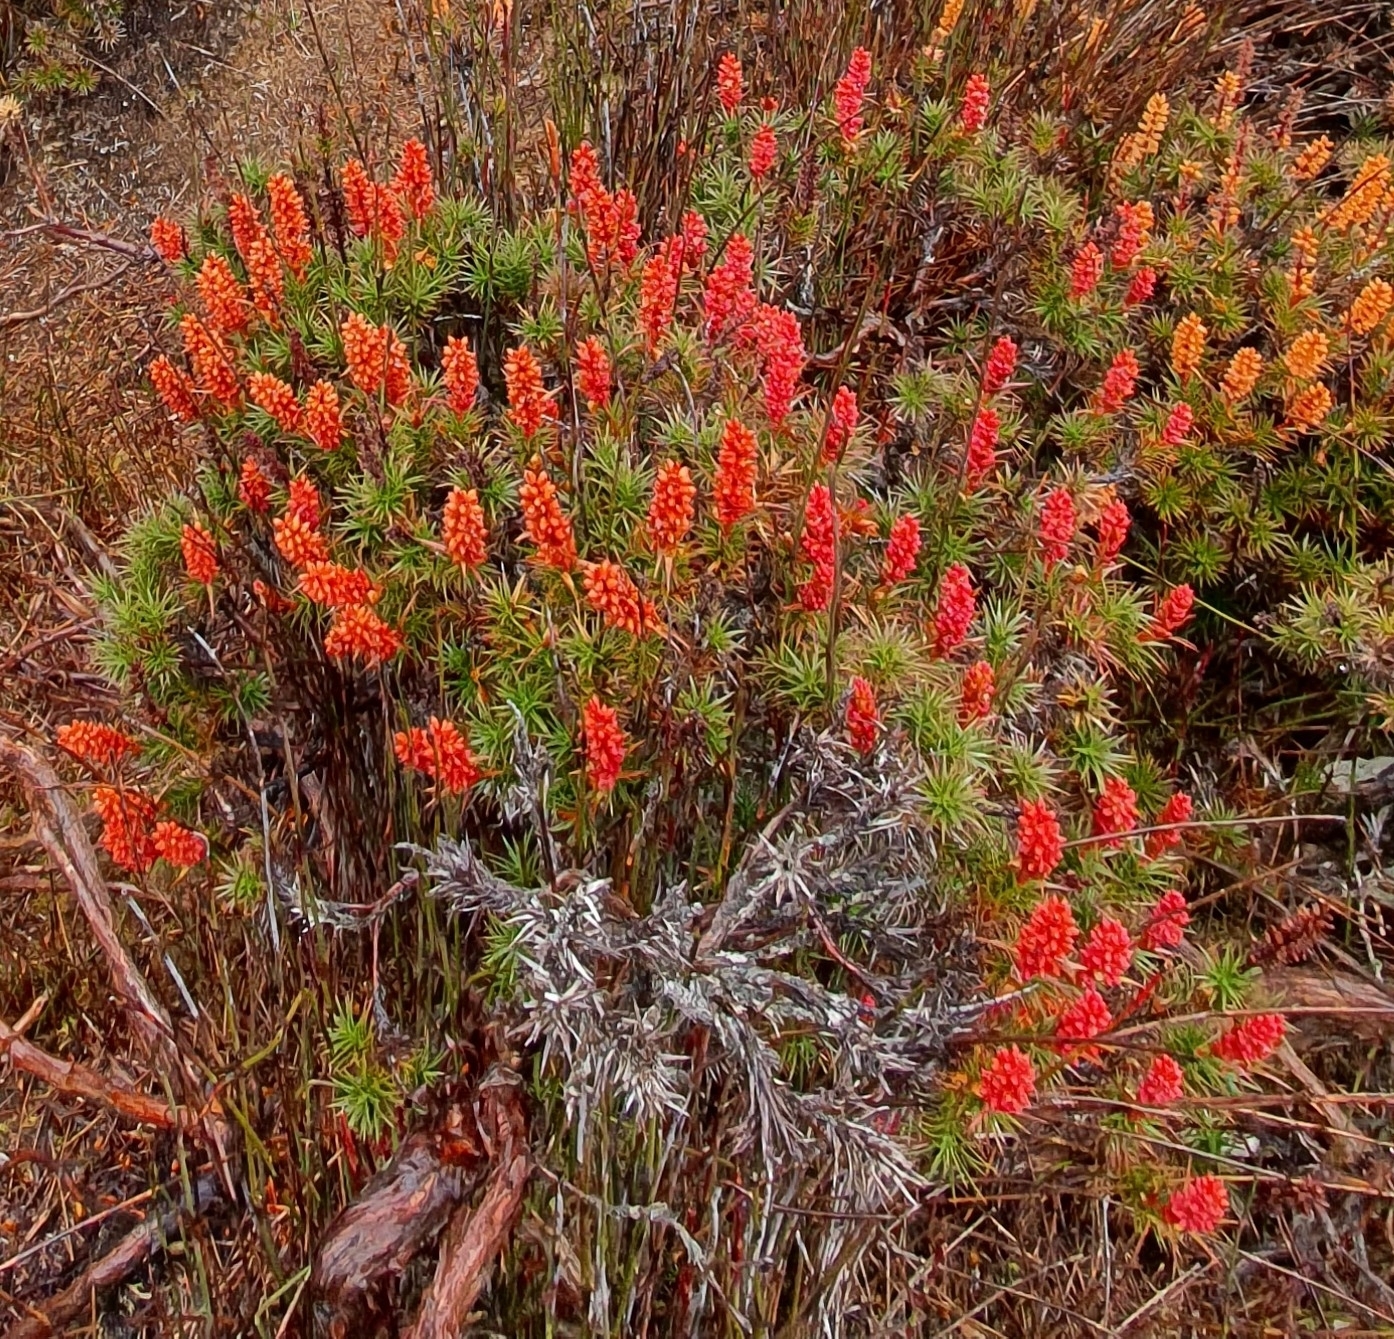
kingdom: Plantae
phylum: Tracheophyta
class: Magnoliopsida
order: Ericales
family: Ericaceae
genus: Dracophyllum
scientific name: Dracophyllum persistentifolium
